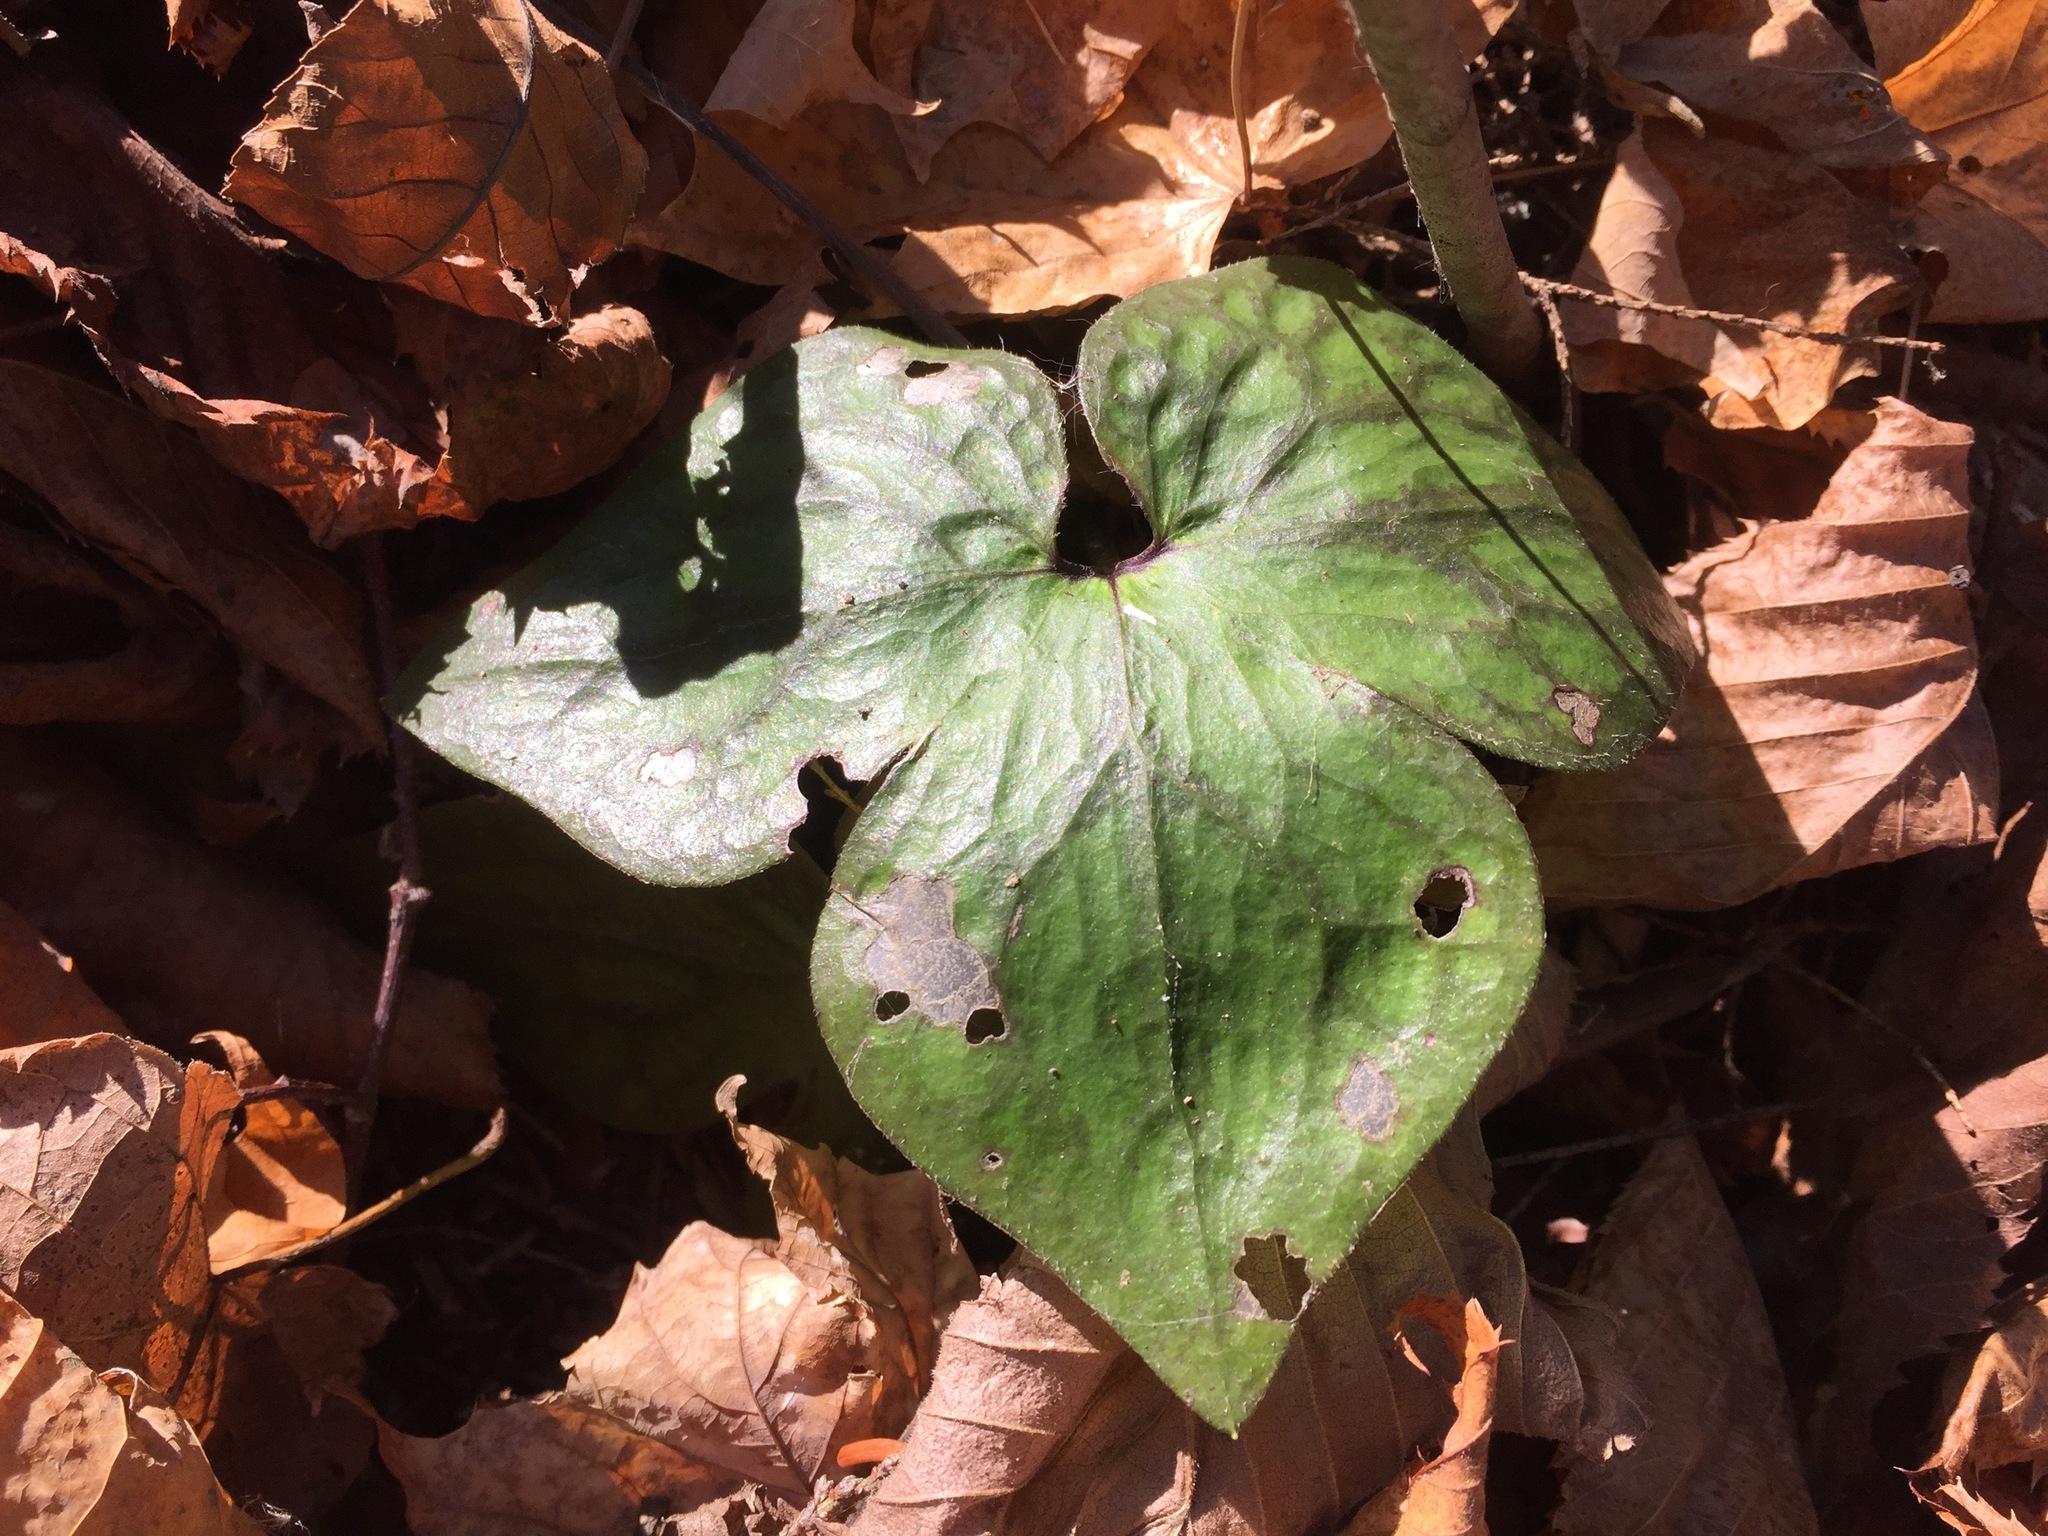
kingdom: Plantae
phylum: Tracheophyta
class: Magnoliopsida
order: Ranunculales
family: Ranunculaceae
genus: Hepatica
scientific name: Hepatica acutiloba
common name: Sharp-lobed hepatica
